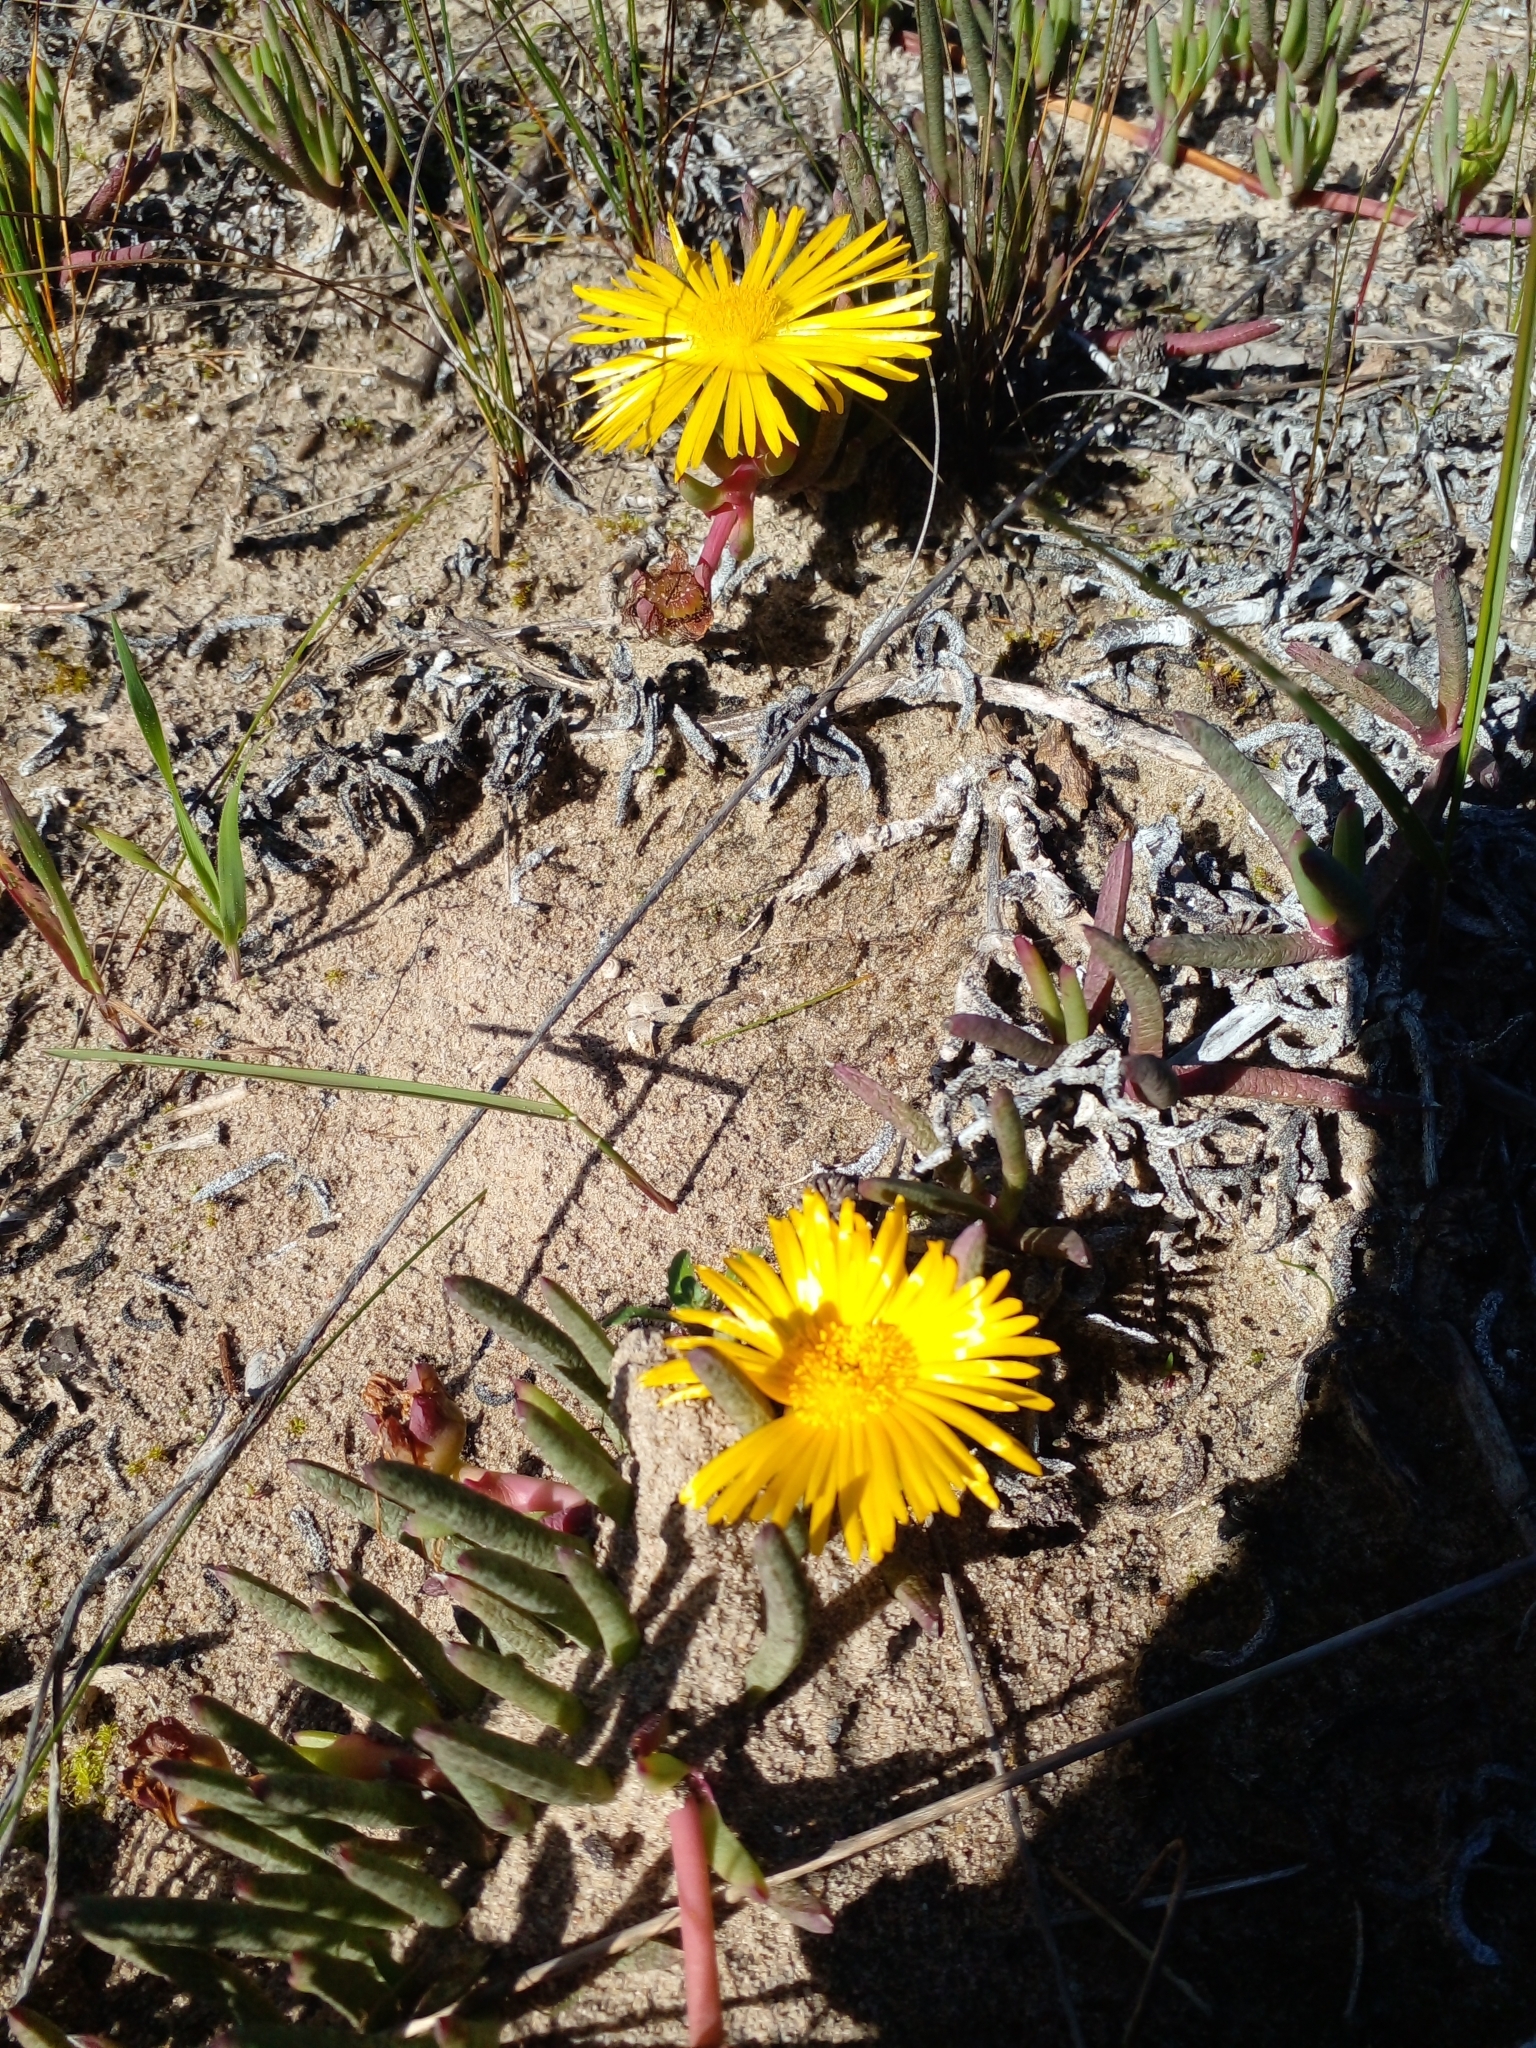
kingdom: Plantae
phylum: Tracheophyta
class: Magnoliopsida
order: Caryophyllales
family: Aizoaceae
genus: Jordaaniella
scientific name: Jordaaniella dubia
